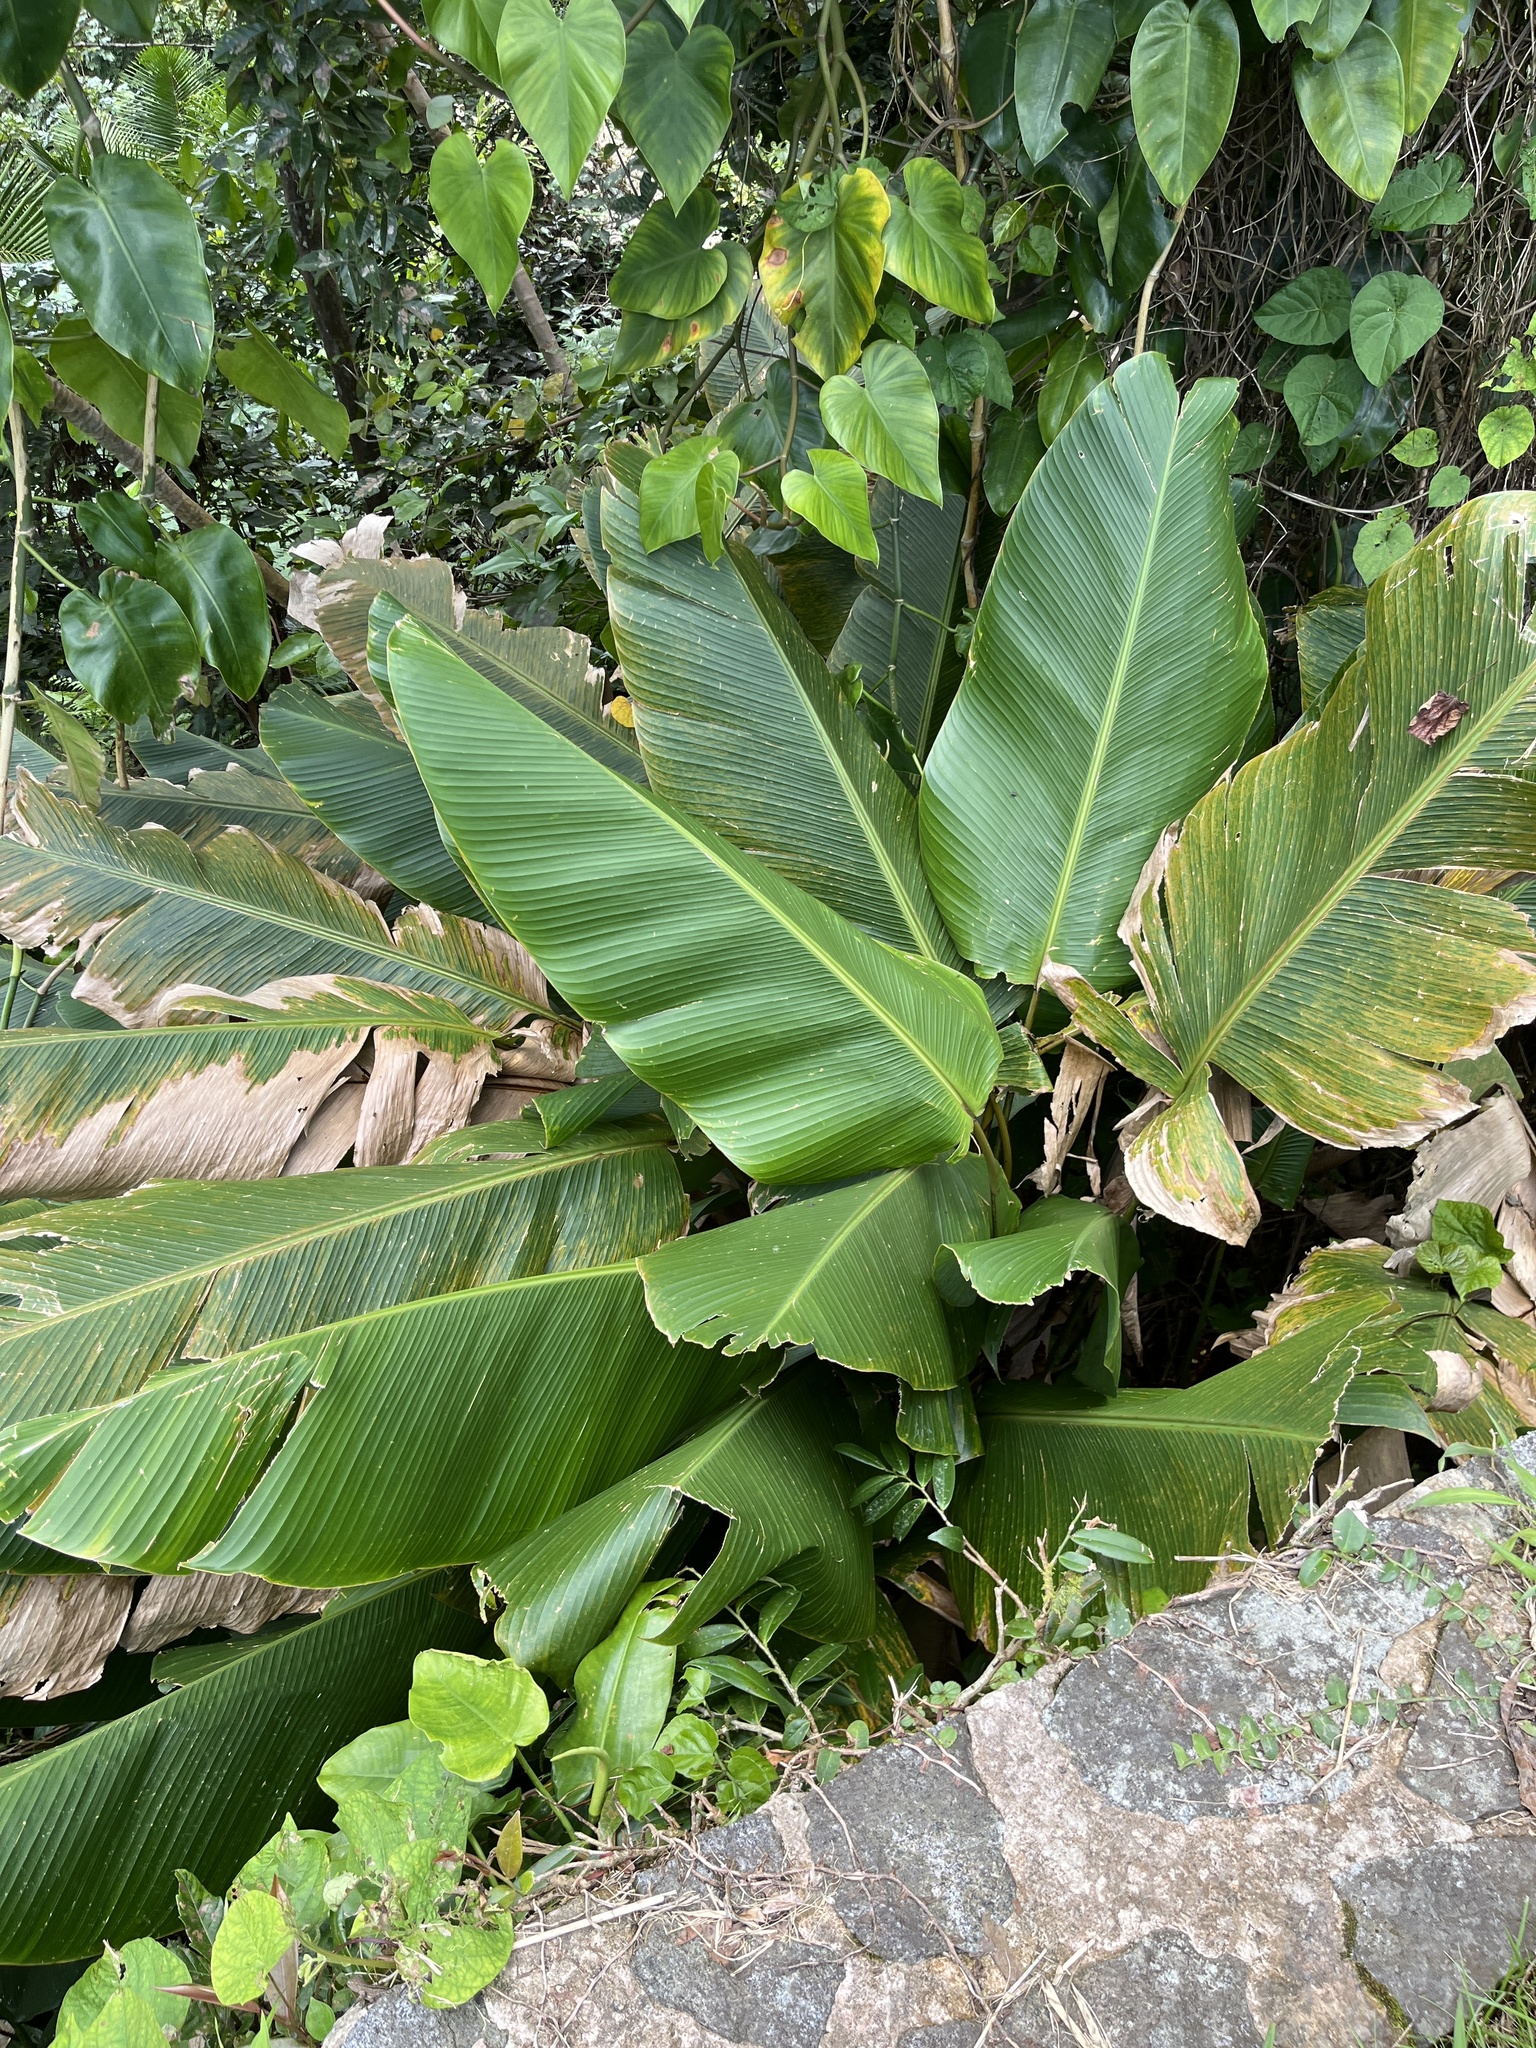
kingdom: Plantae
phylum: Tracheophyta
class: Liliopsida
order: Zingiberales
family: Marantaceae
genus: Calathea
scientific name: Calathea lutea
